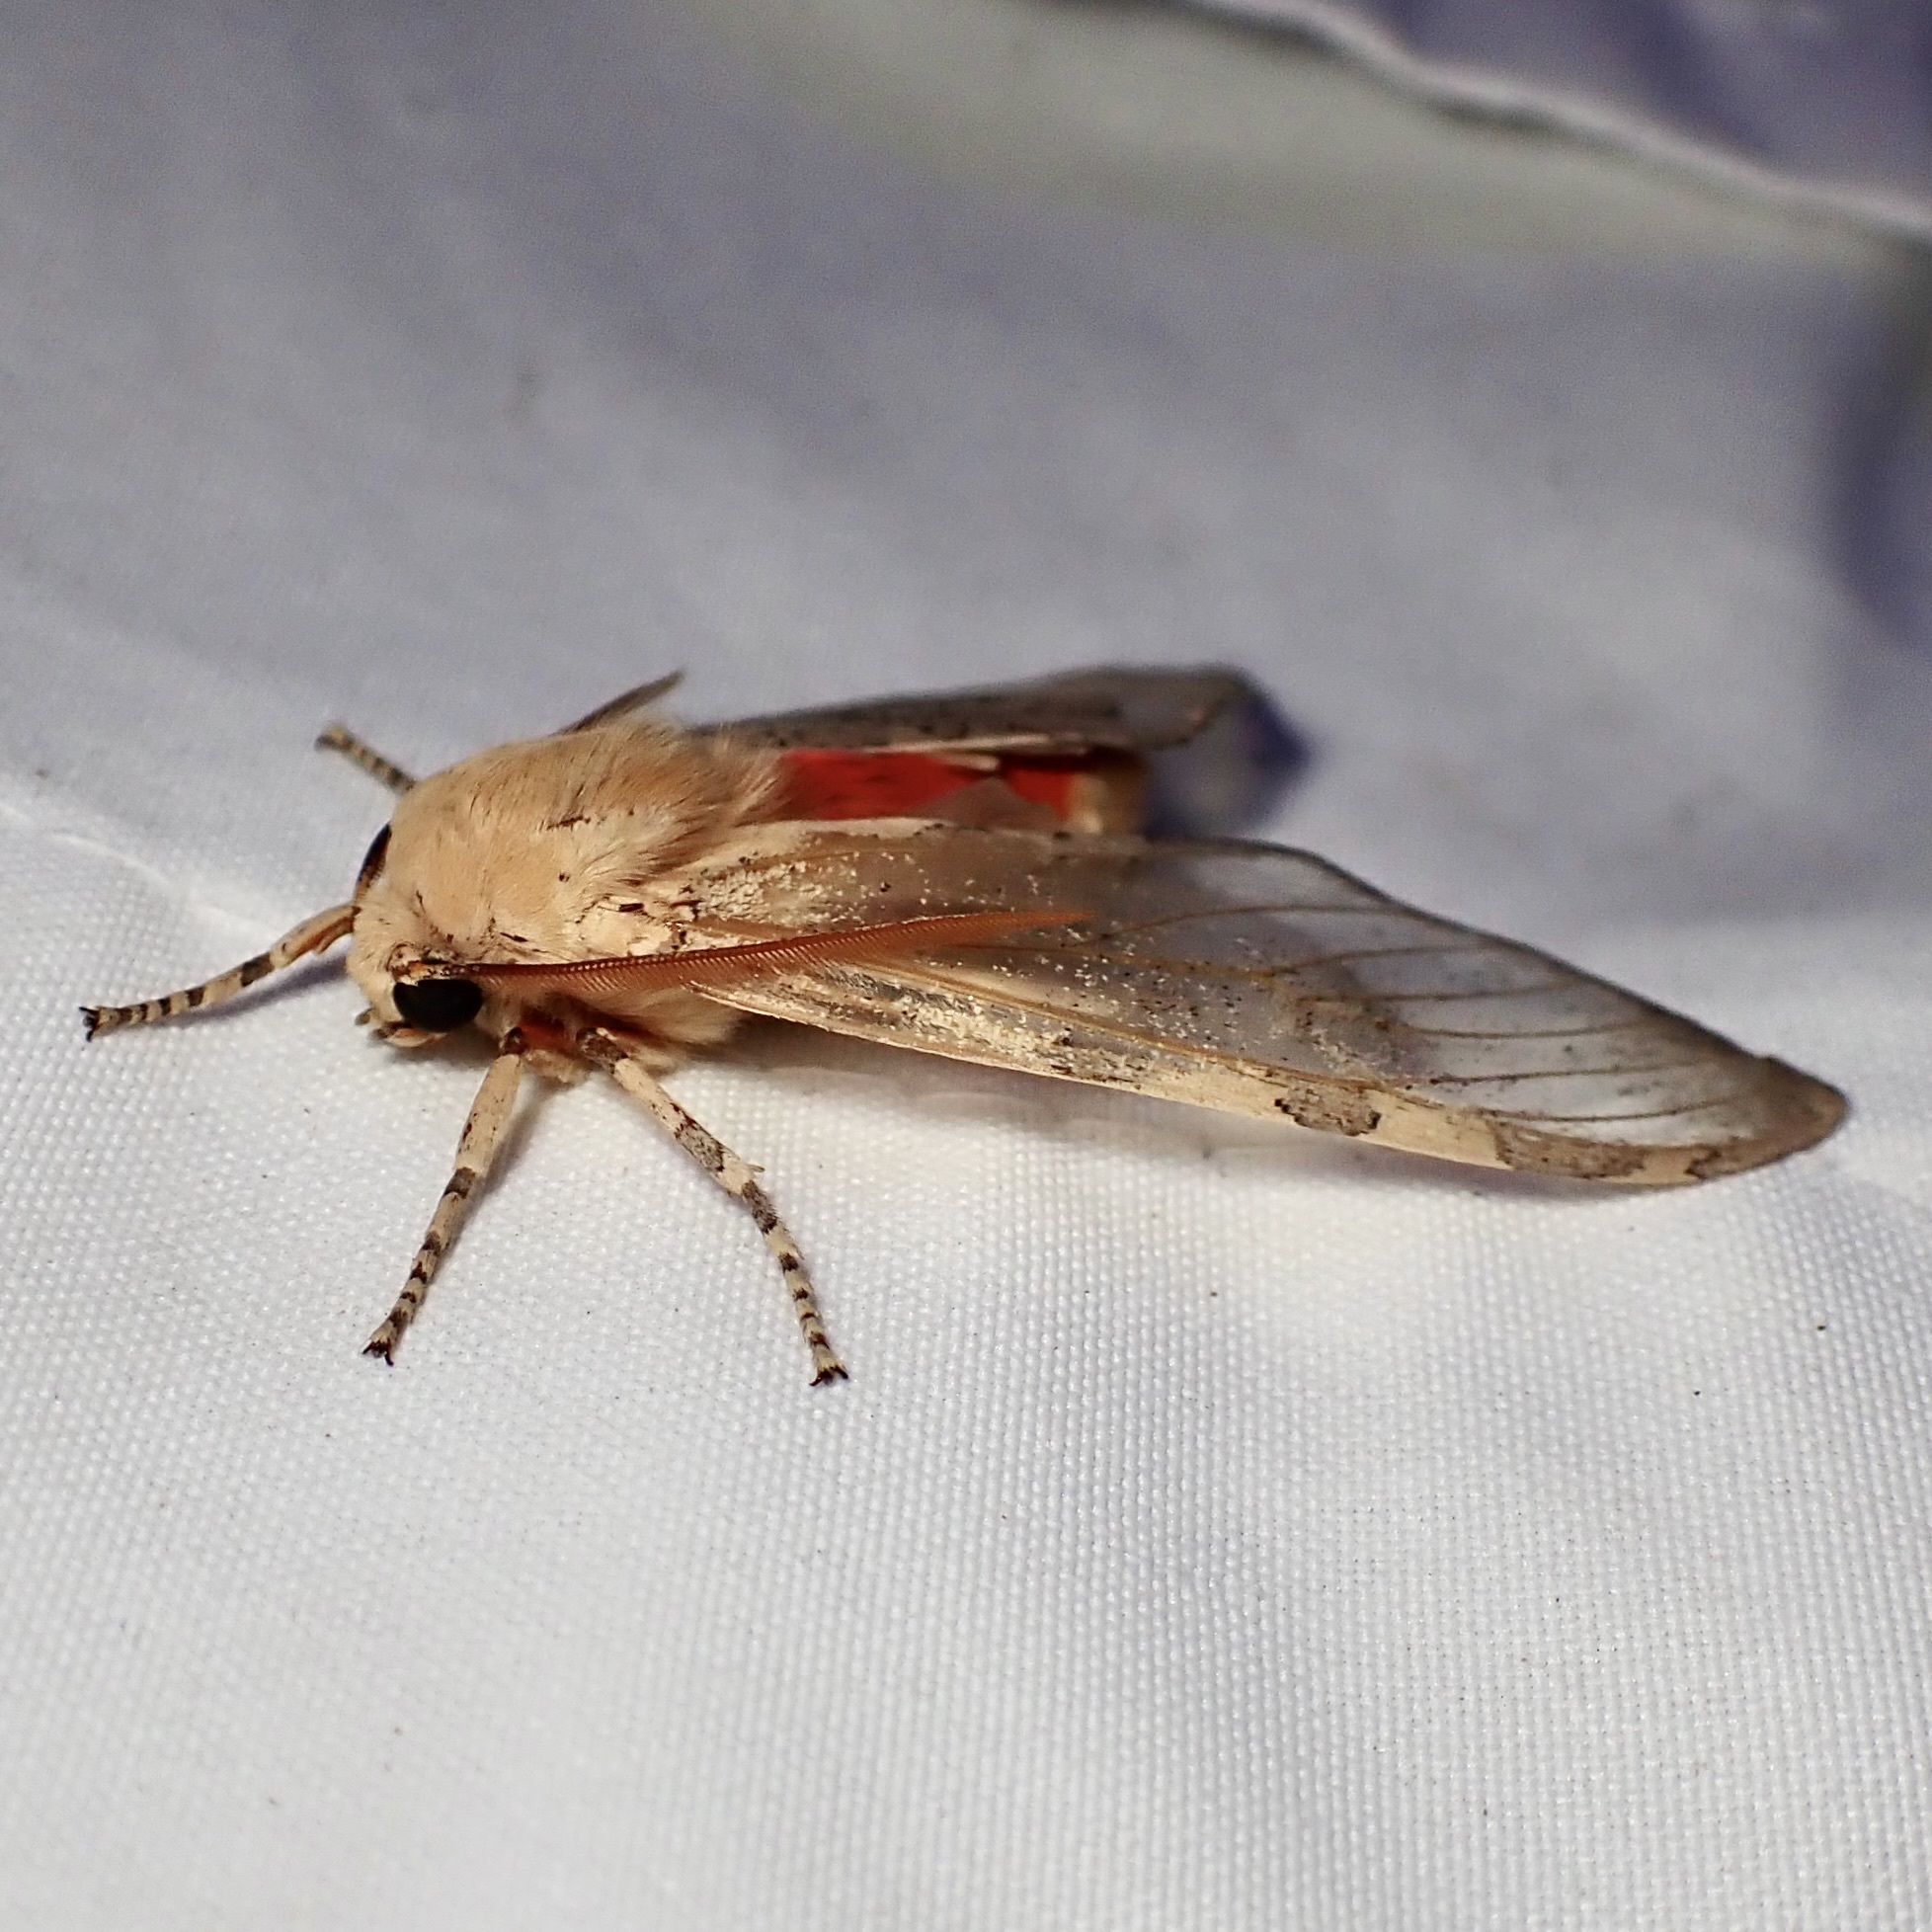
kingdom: Animalia
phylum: Arthropoda
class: Insecta
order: Lepidoptera
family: Erebidae
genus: Hemihyalea
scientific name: Hemihyalea edwardsii
